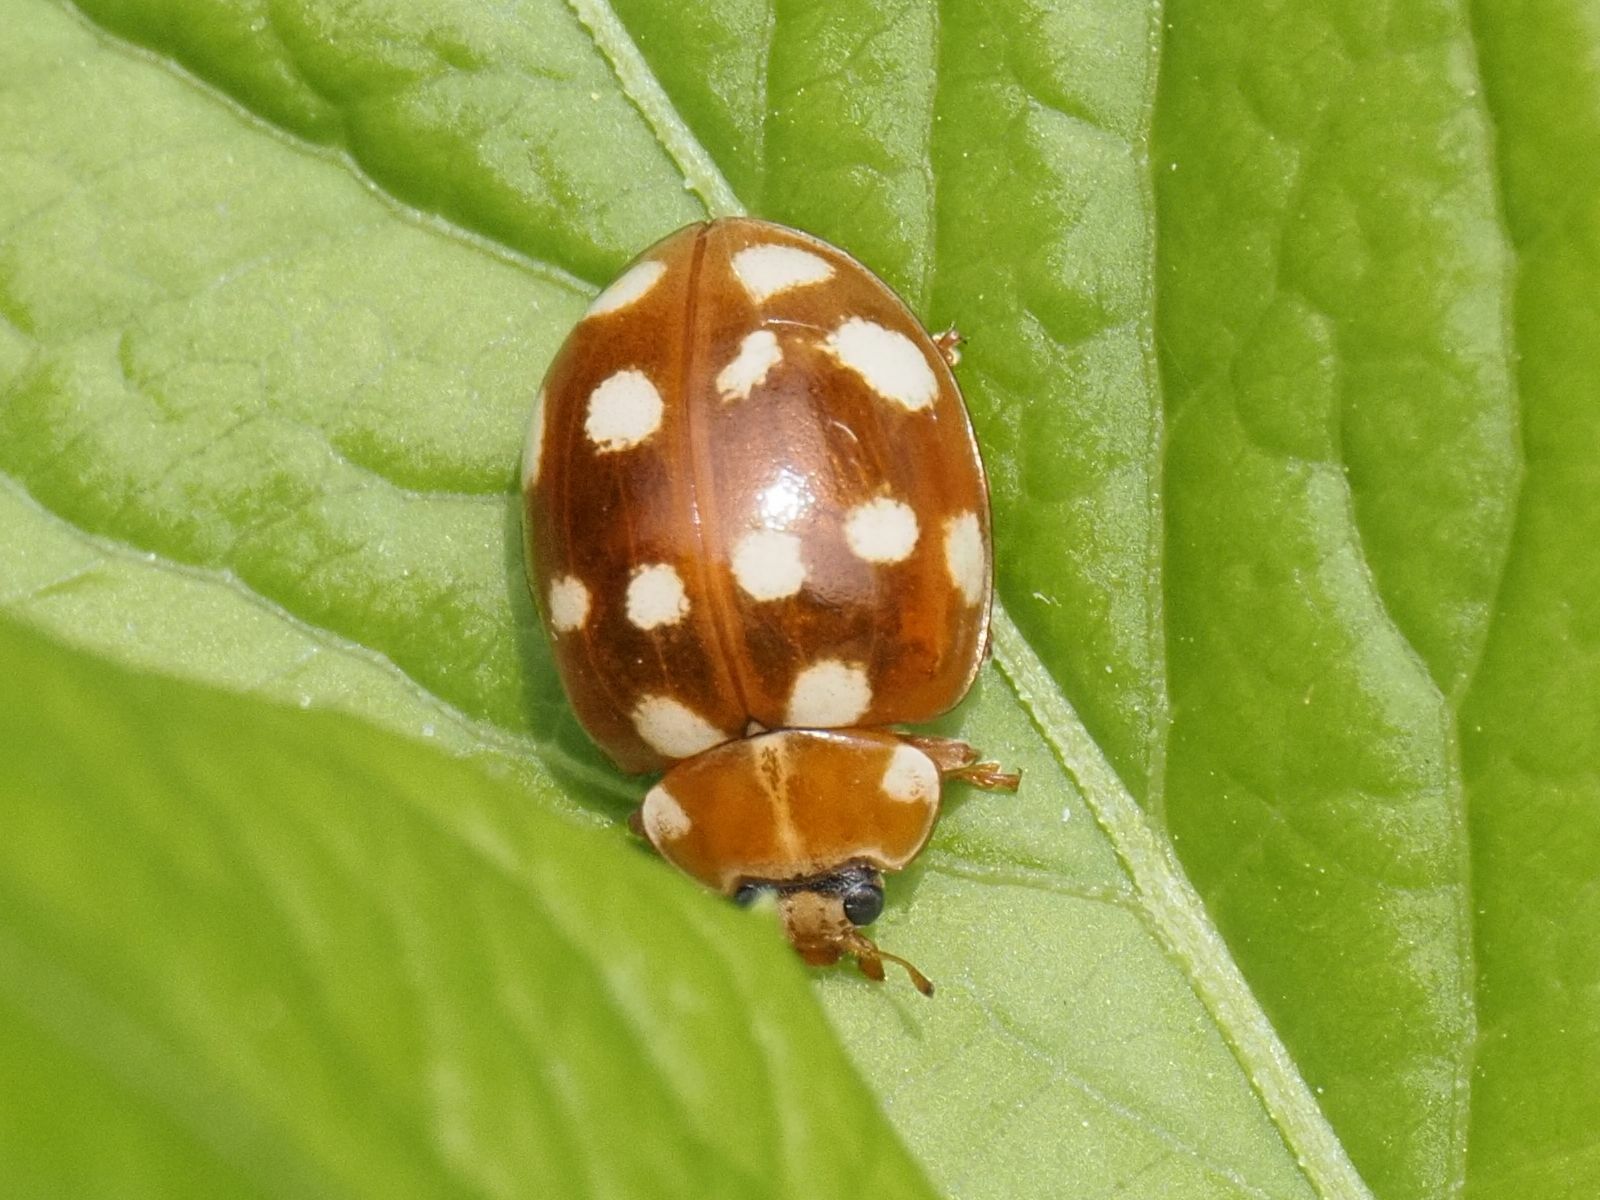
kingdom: Animalia
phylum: Arthropoda
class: Insecta
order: Coleoptera
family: Coccinellidae
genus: Calvia
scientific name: Calvia quatuordecimguttata
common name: Cream-spot ladybird
